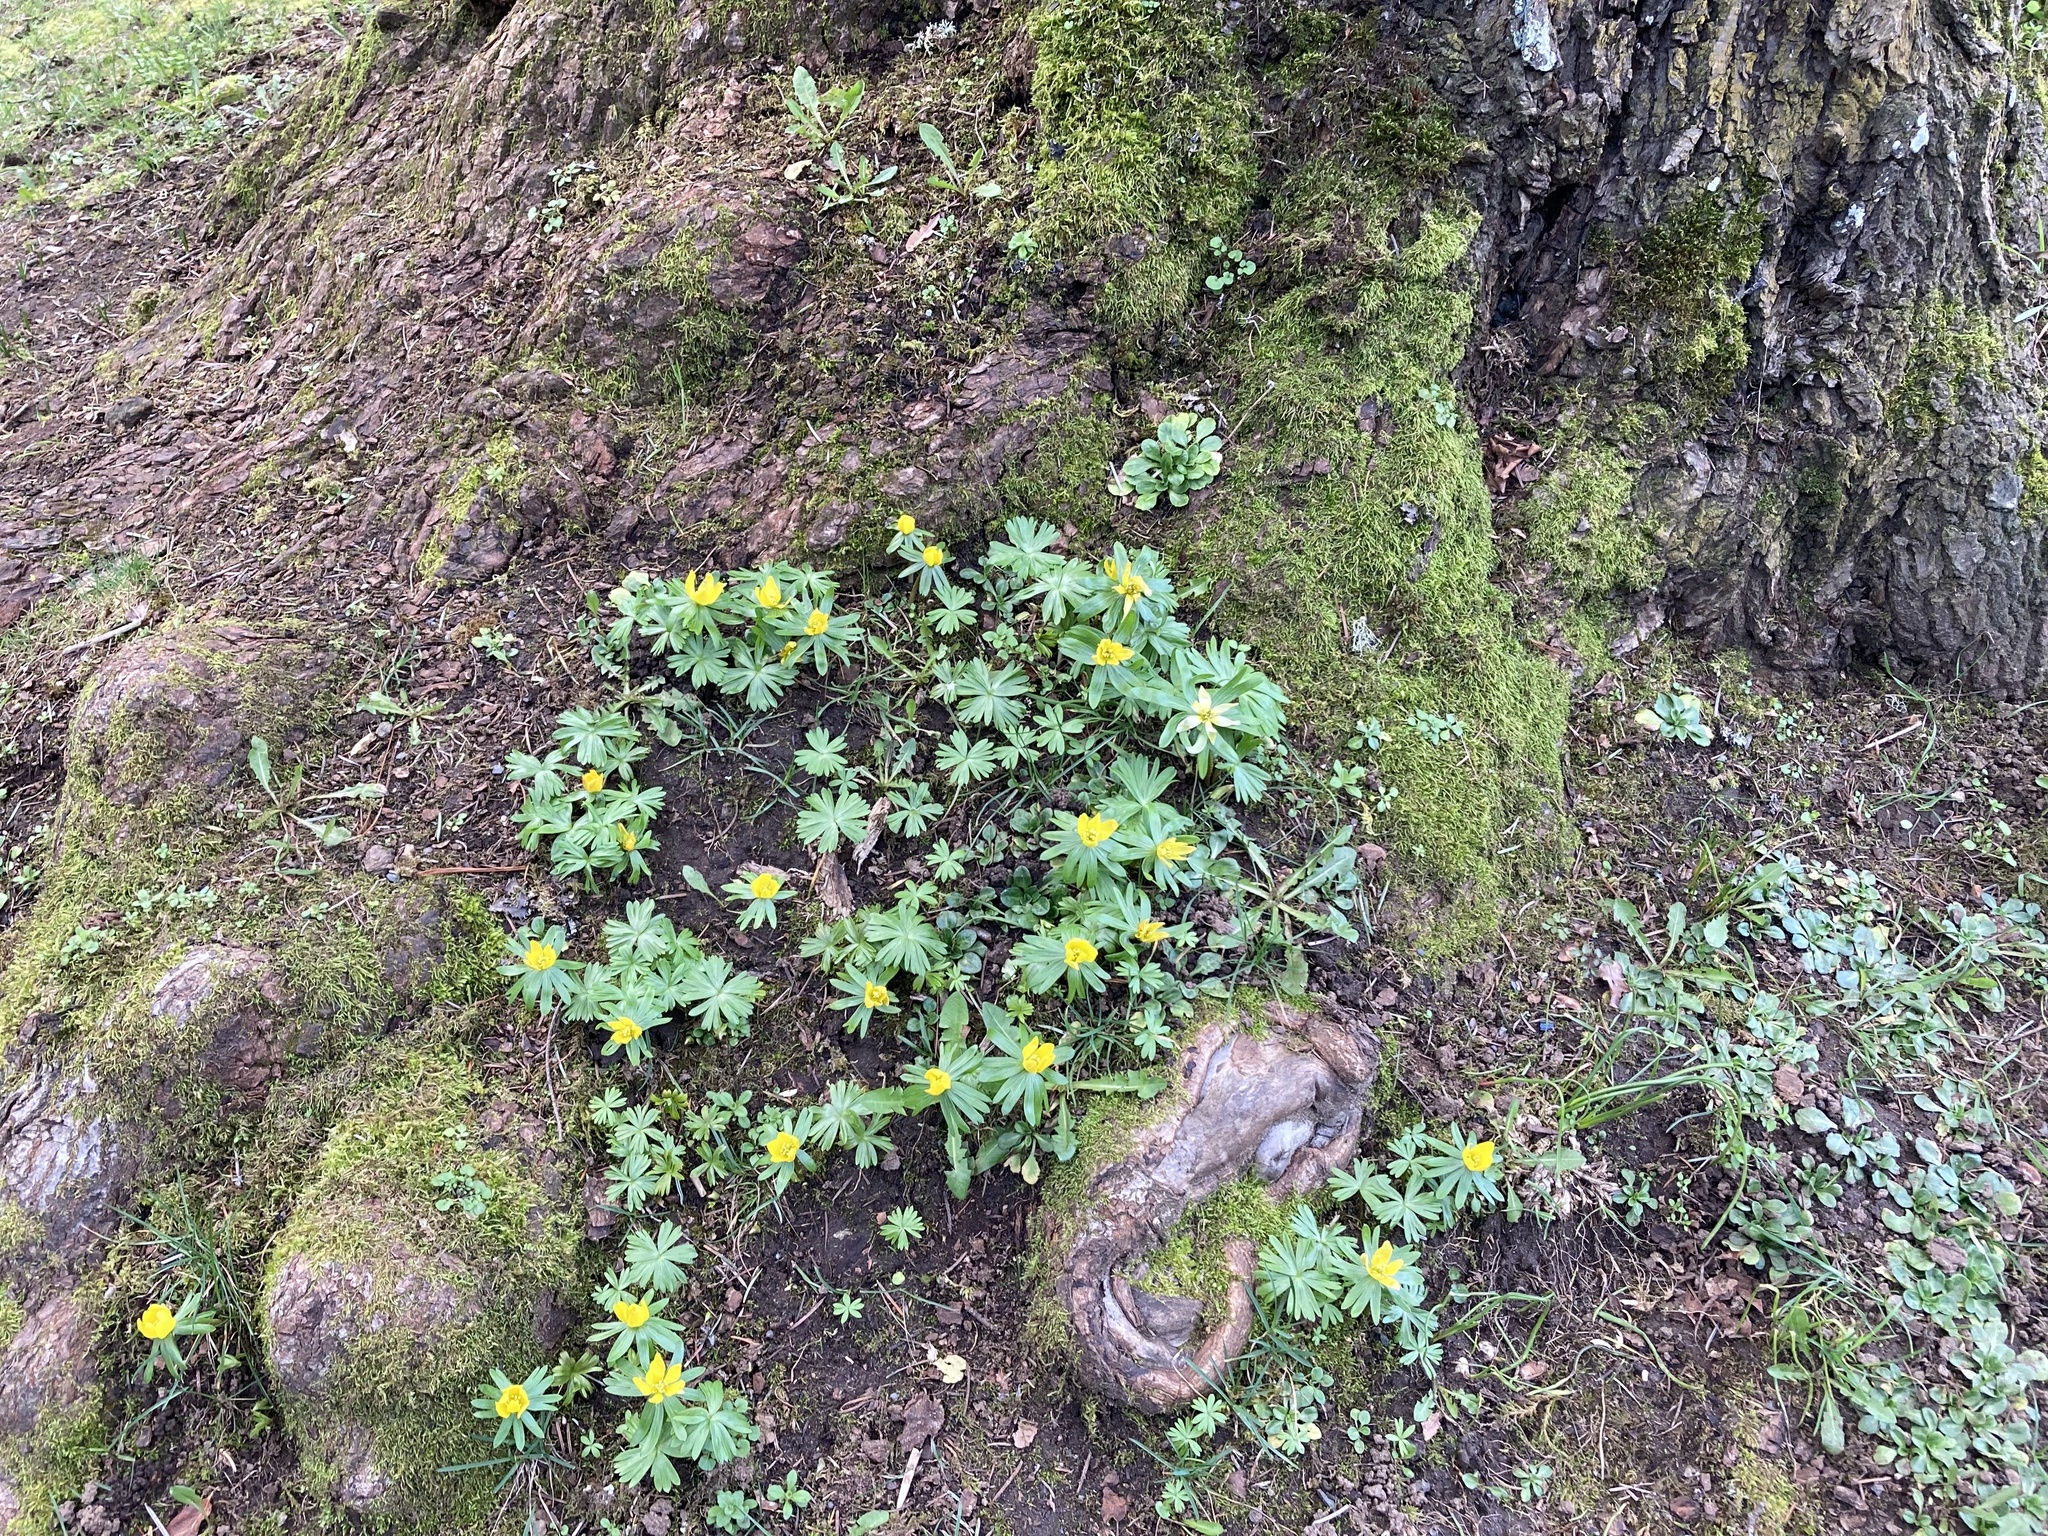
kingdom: Plantae
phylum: Tracheophyta
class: Magnoliopsida
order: Ranunculales
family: Ranunculaceae
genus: Eranthis
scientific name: Eranthis hyemalis
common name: Winter aconite
